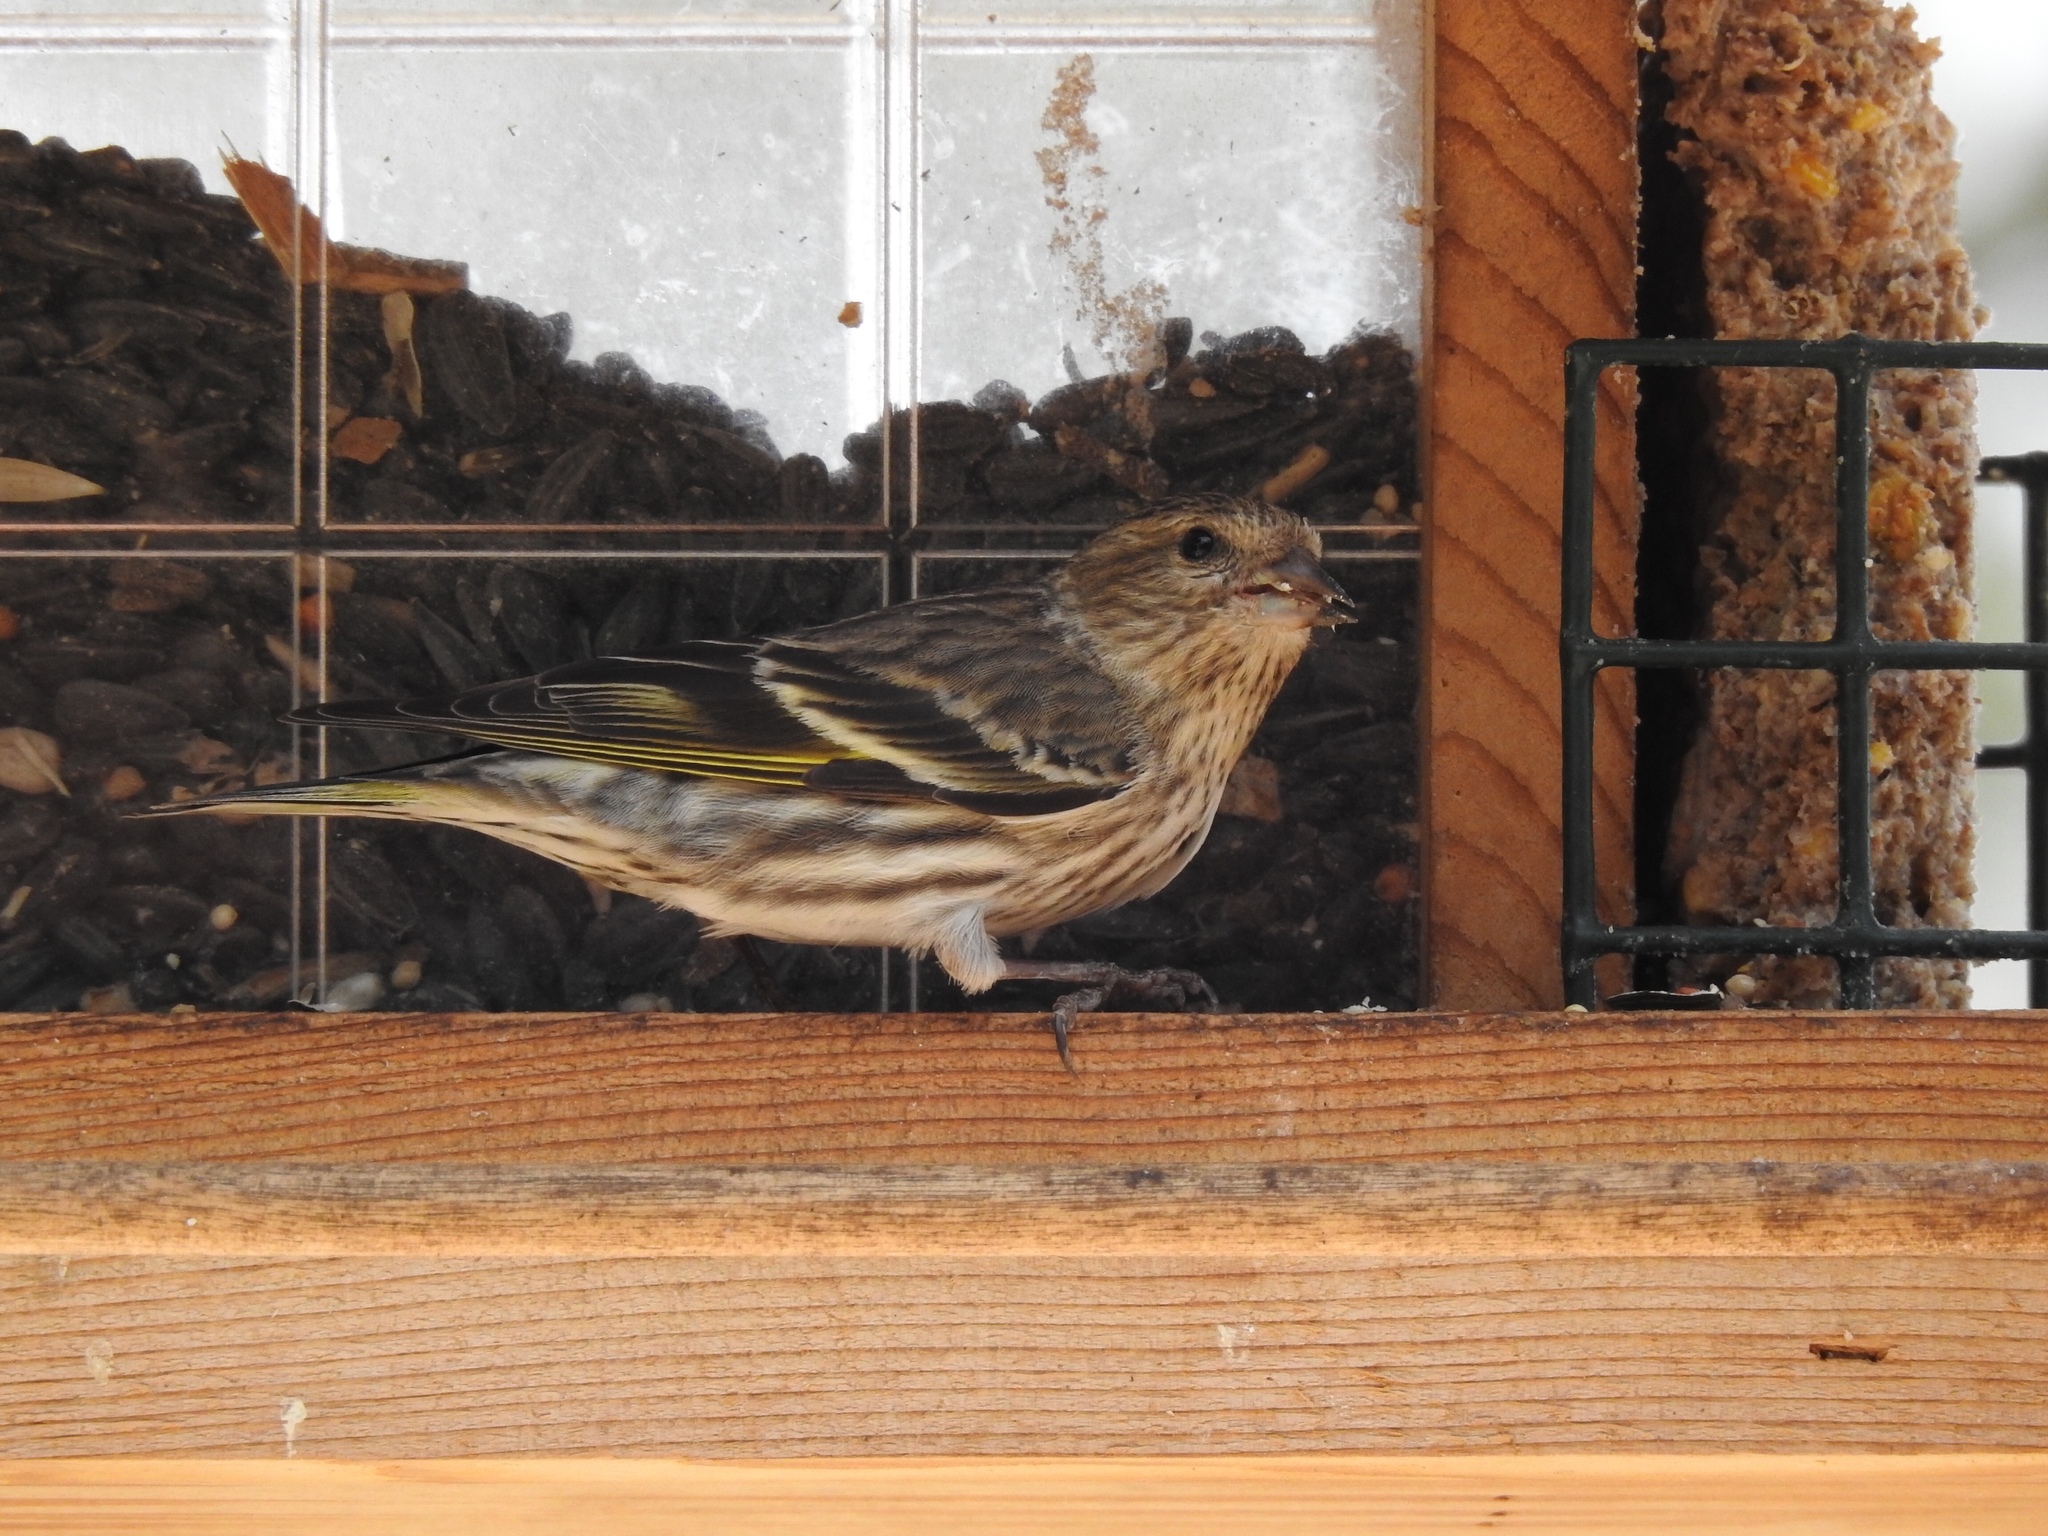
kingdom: Animalia
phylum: Chordata
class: Aves
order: Passeriformes
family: Fringillidae
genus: Spinus
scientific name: Spinus pinus
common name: Pine siskin
